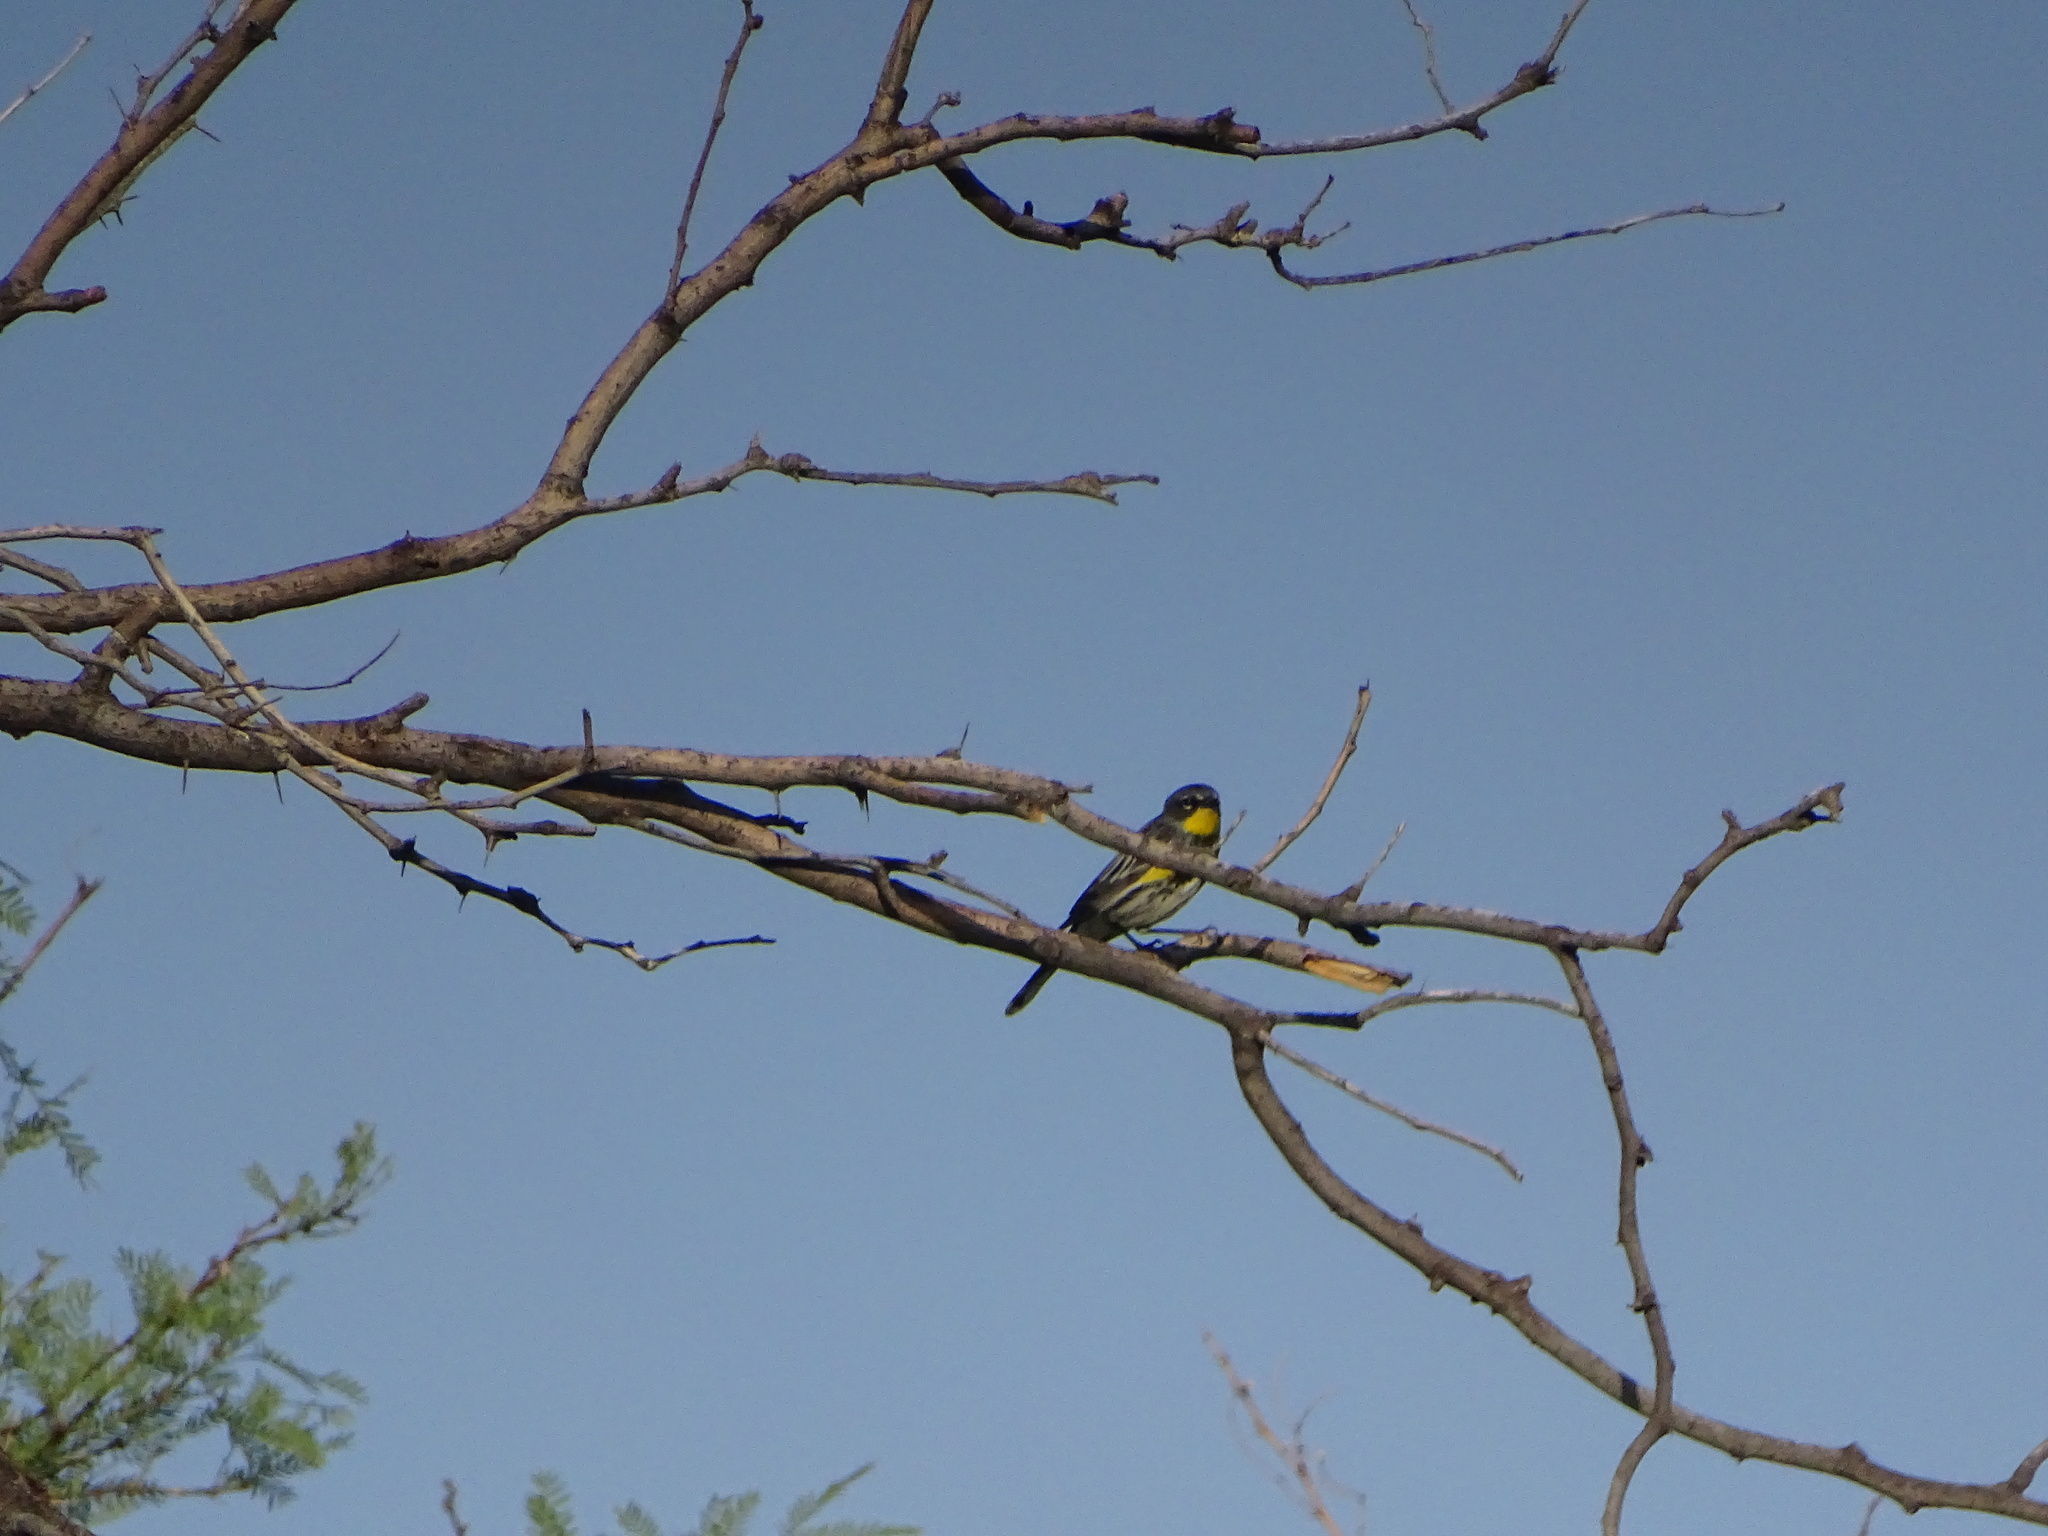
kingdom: Animalia
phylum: Chordata
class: Aves
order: Passeriformes
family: Parulidae
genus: Setophaga
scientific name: Setophaga coronata
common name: Myrtle warbler
